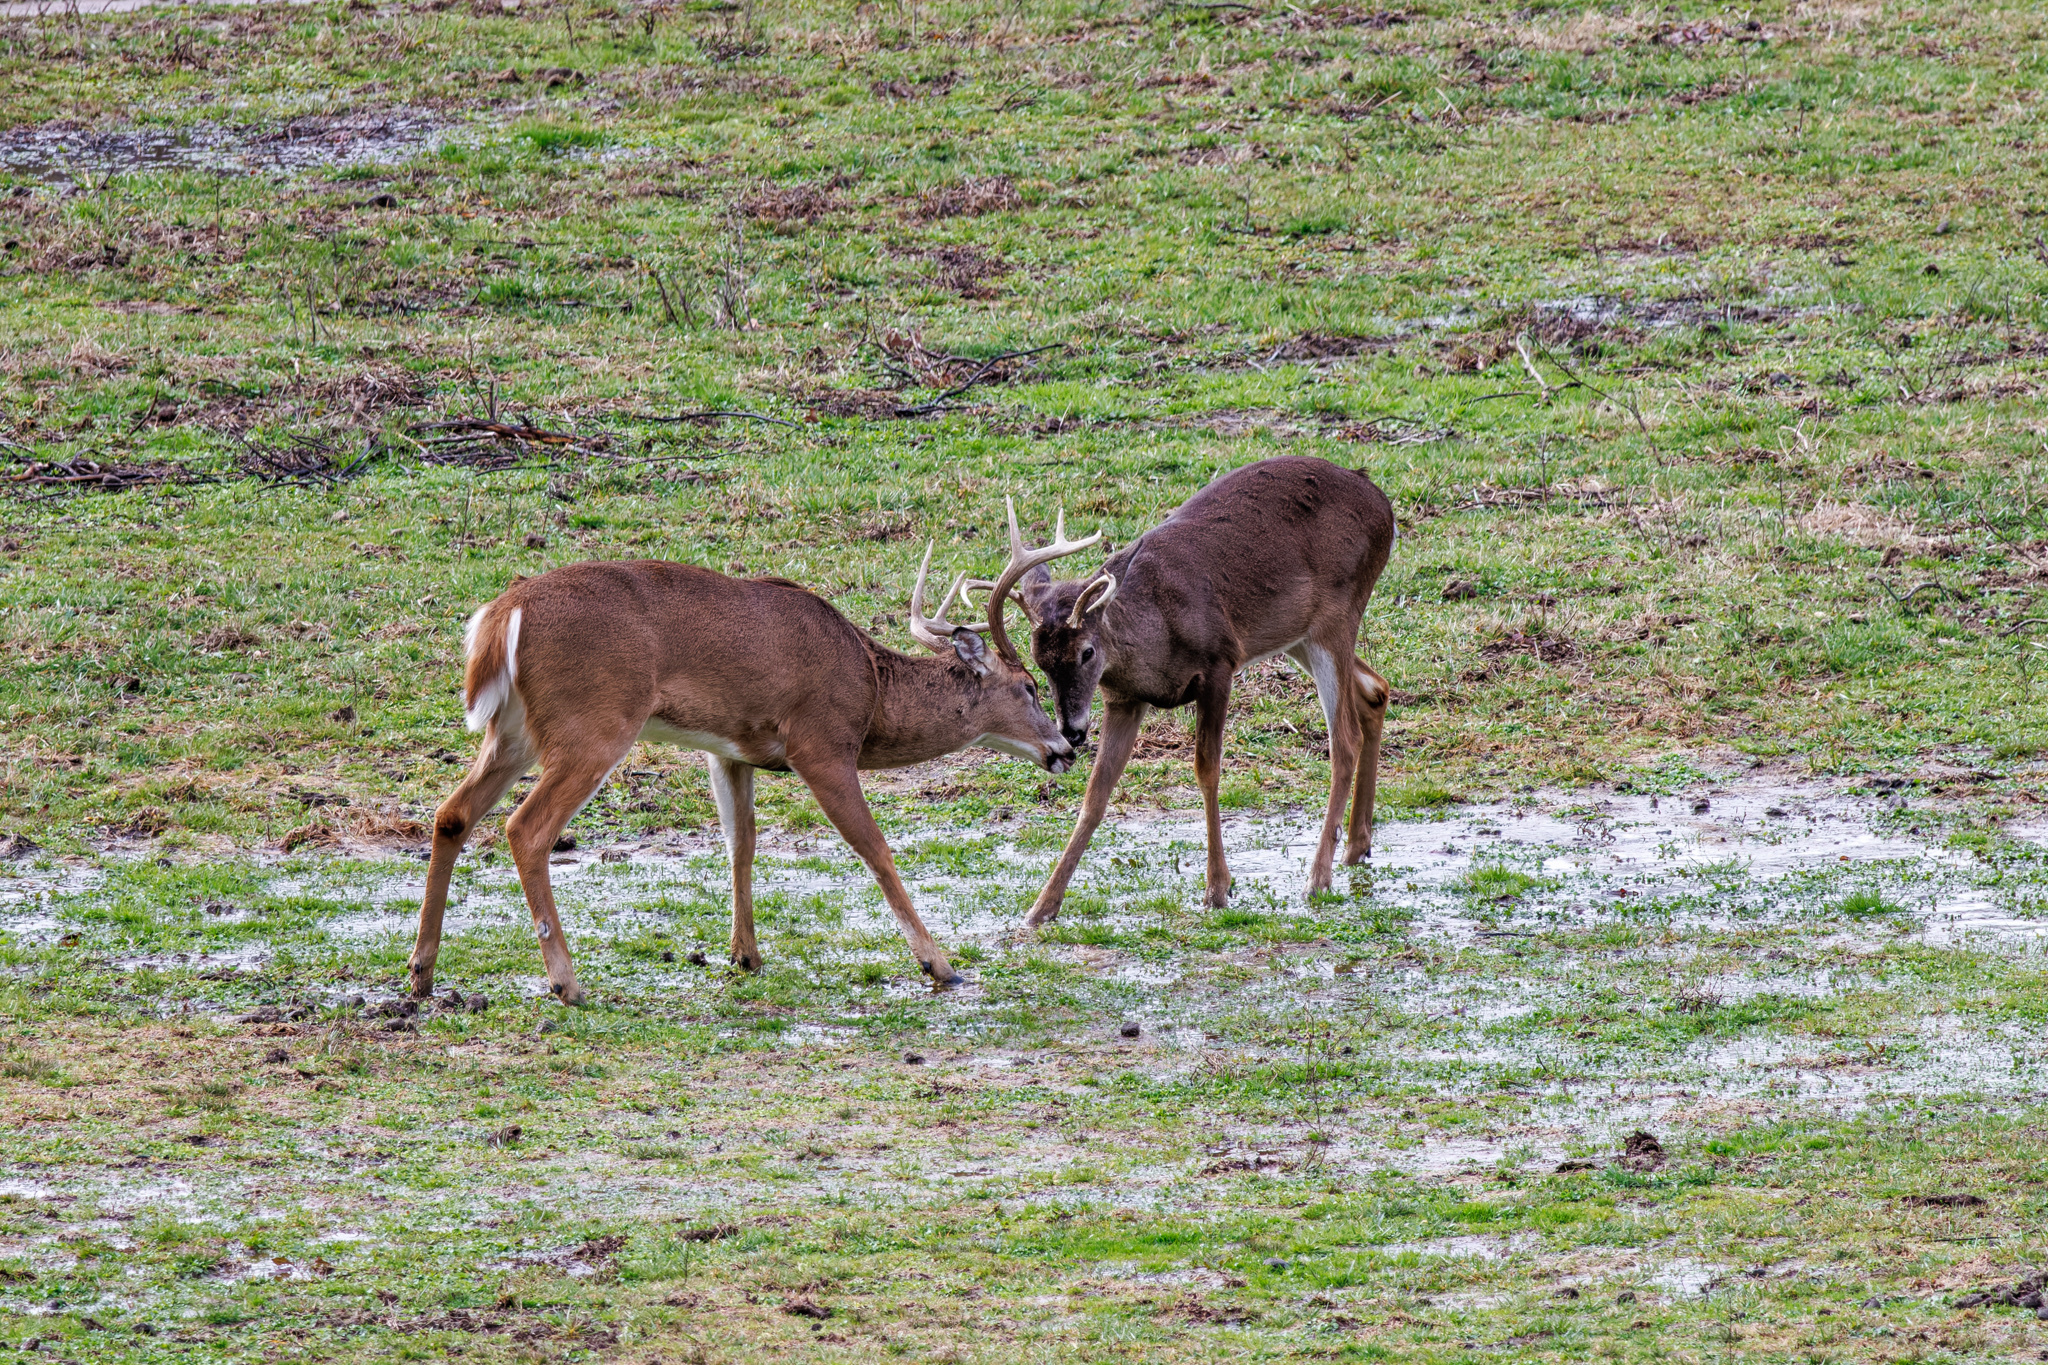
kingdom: Animalia
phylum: Chordata
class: Mammalia
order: Artiodactyla
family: Cervidae
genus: Odocoileus
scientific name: Odocoileus virginianus
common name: White-tailed deer
